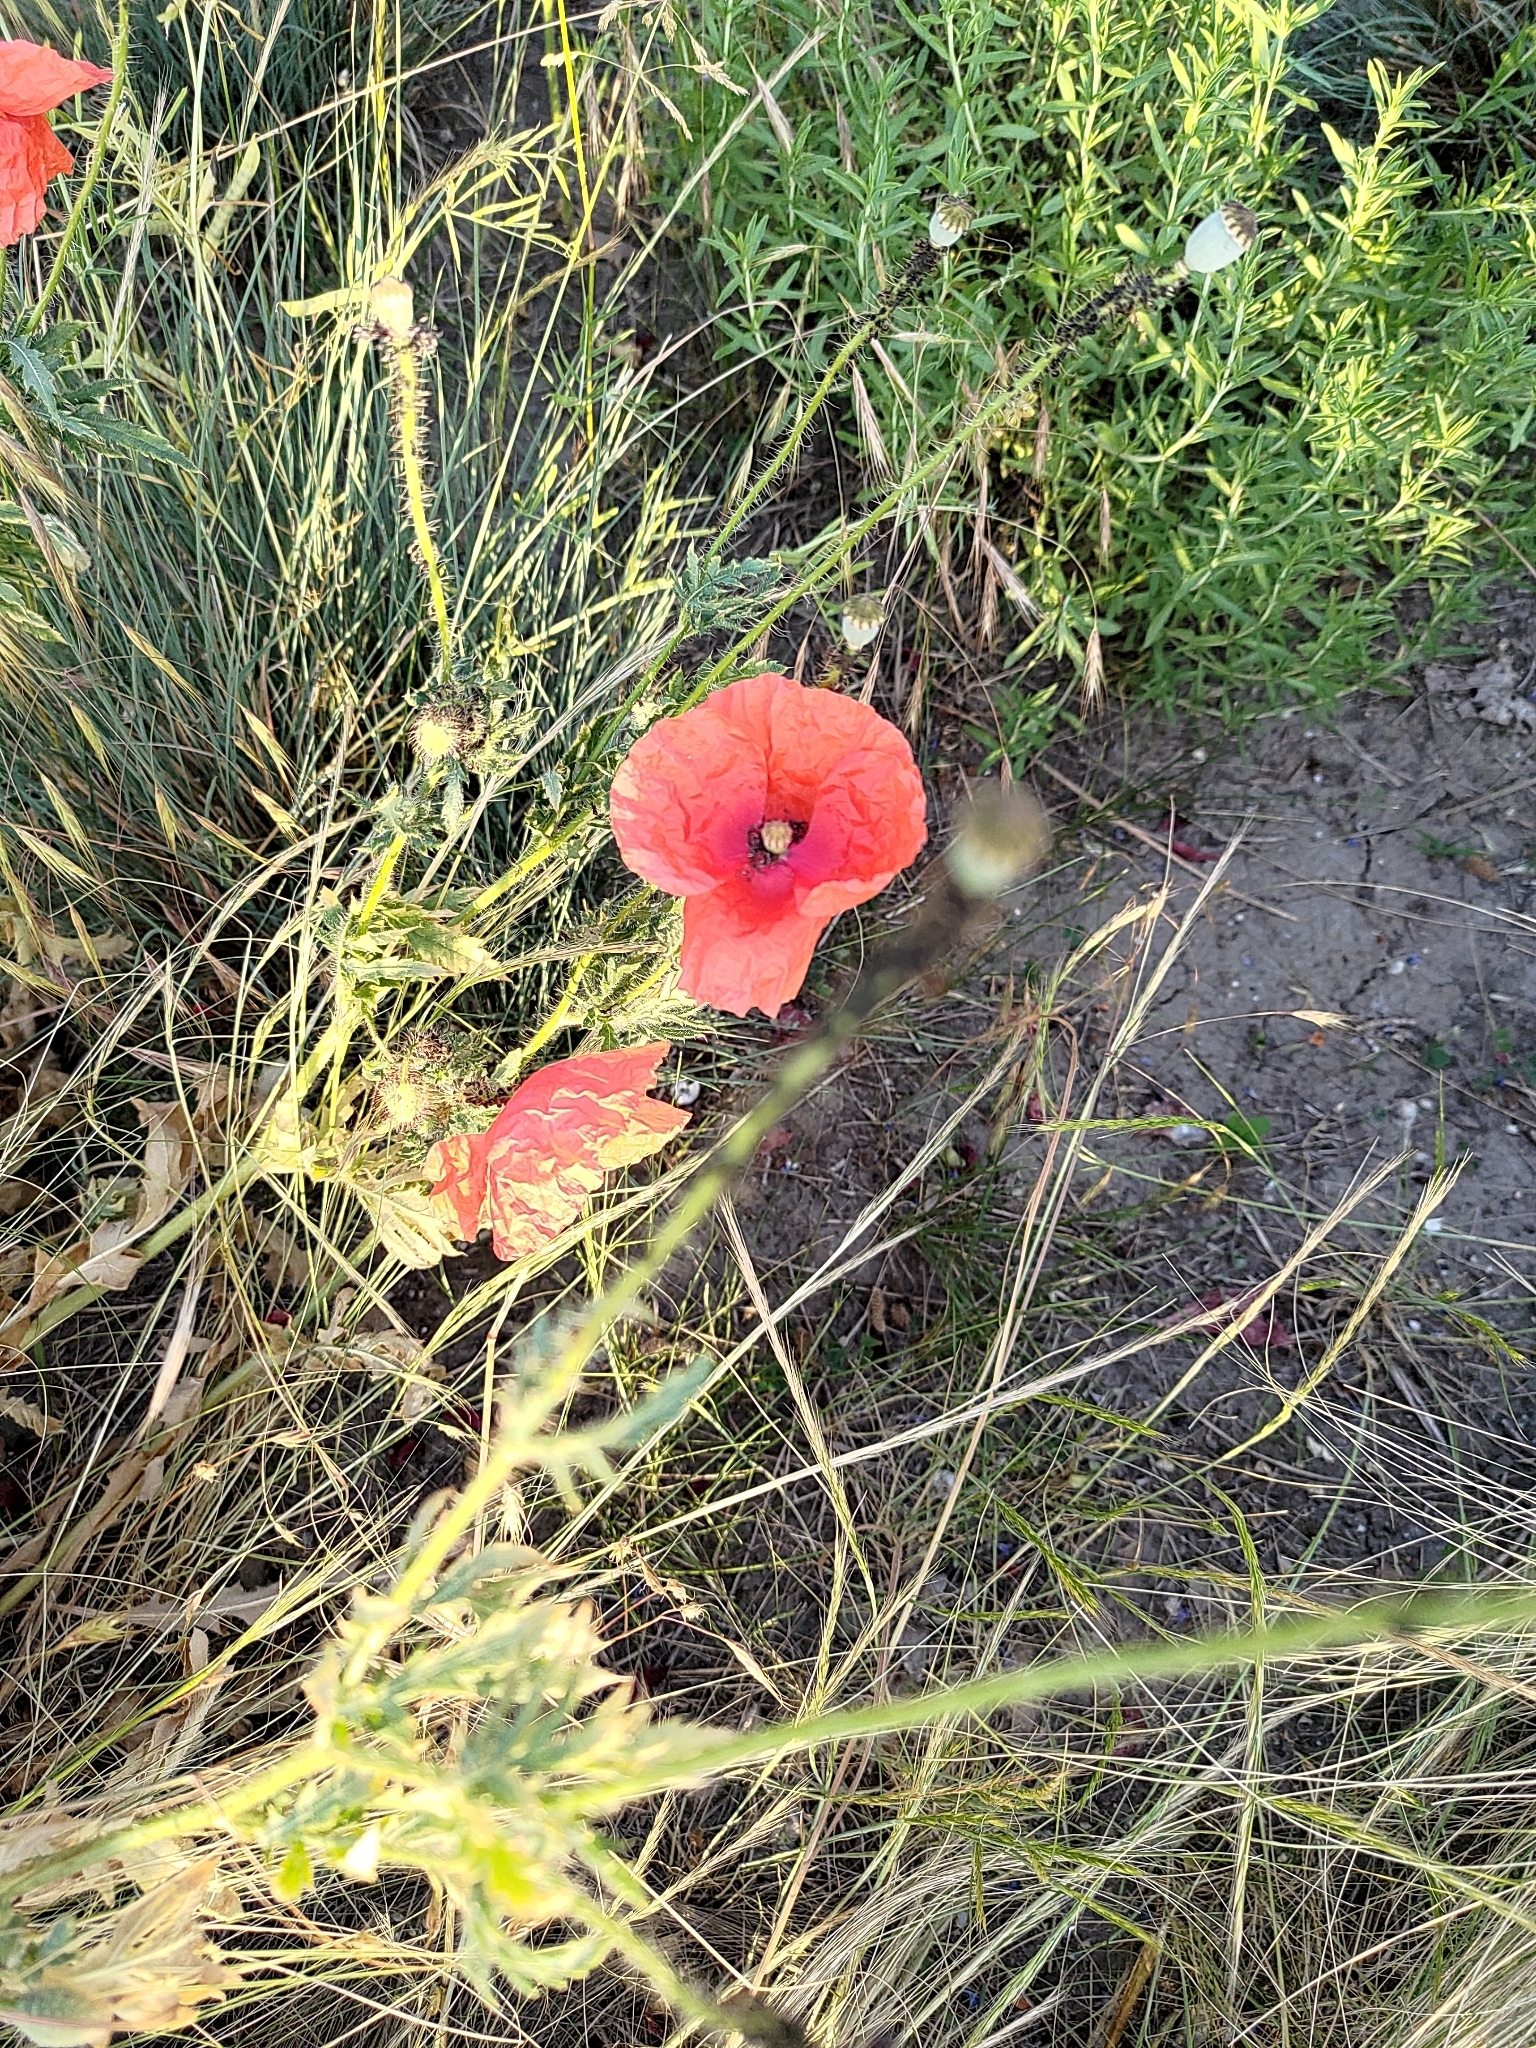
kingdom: Plantae
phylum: Tracheophyta
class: Magnoliopsida
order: Ranunculales
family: Papaveraceae
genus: Papaver
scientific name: Papaver rhoeas
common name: Corn poppy
